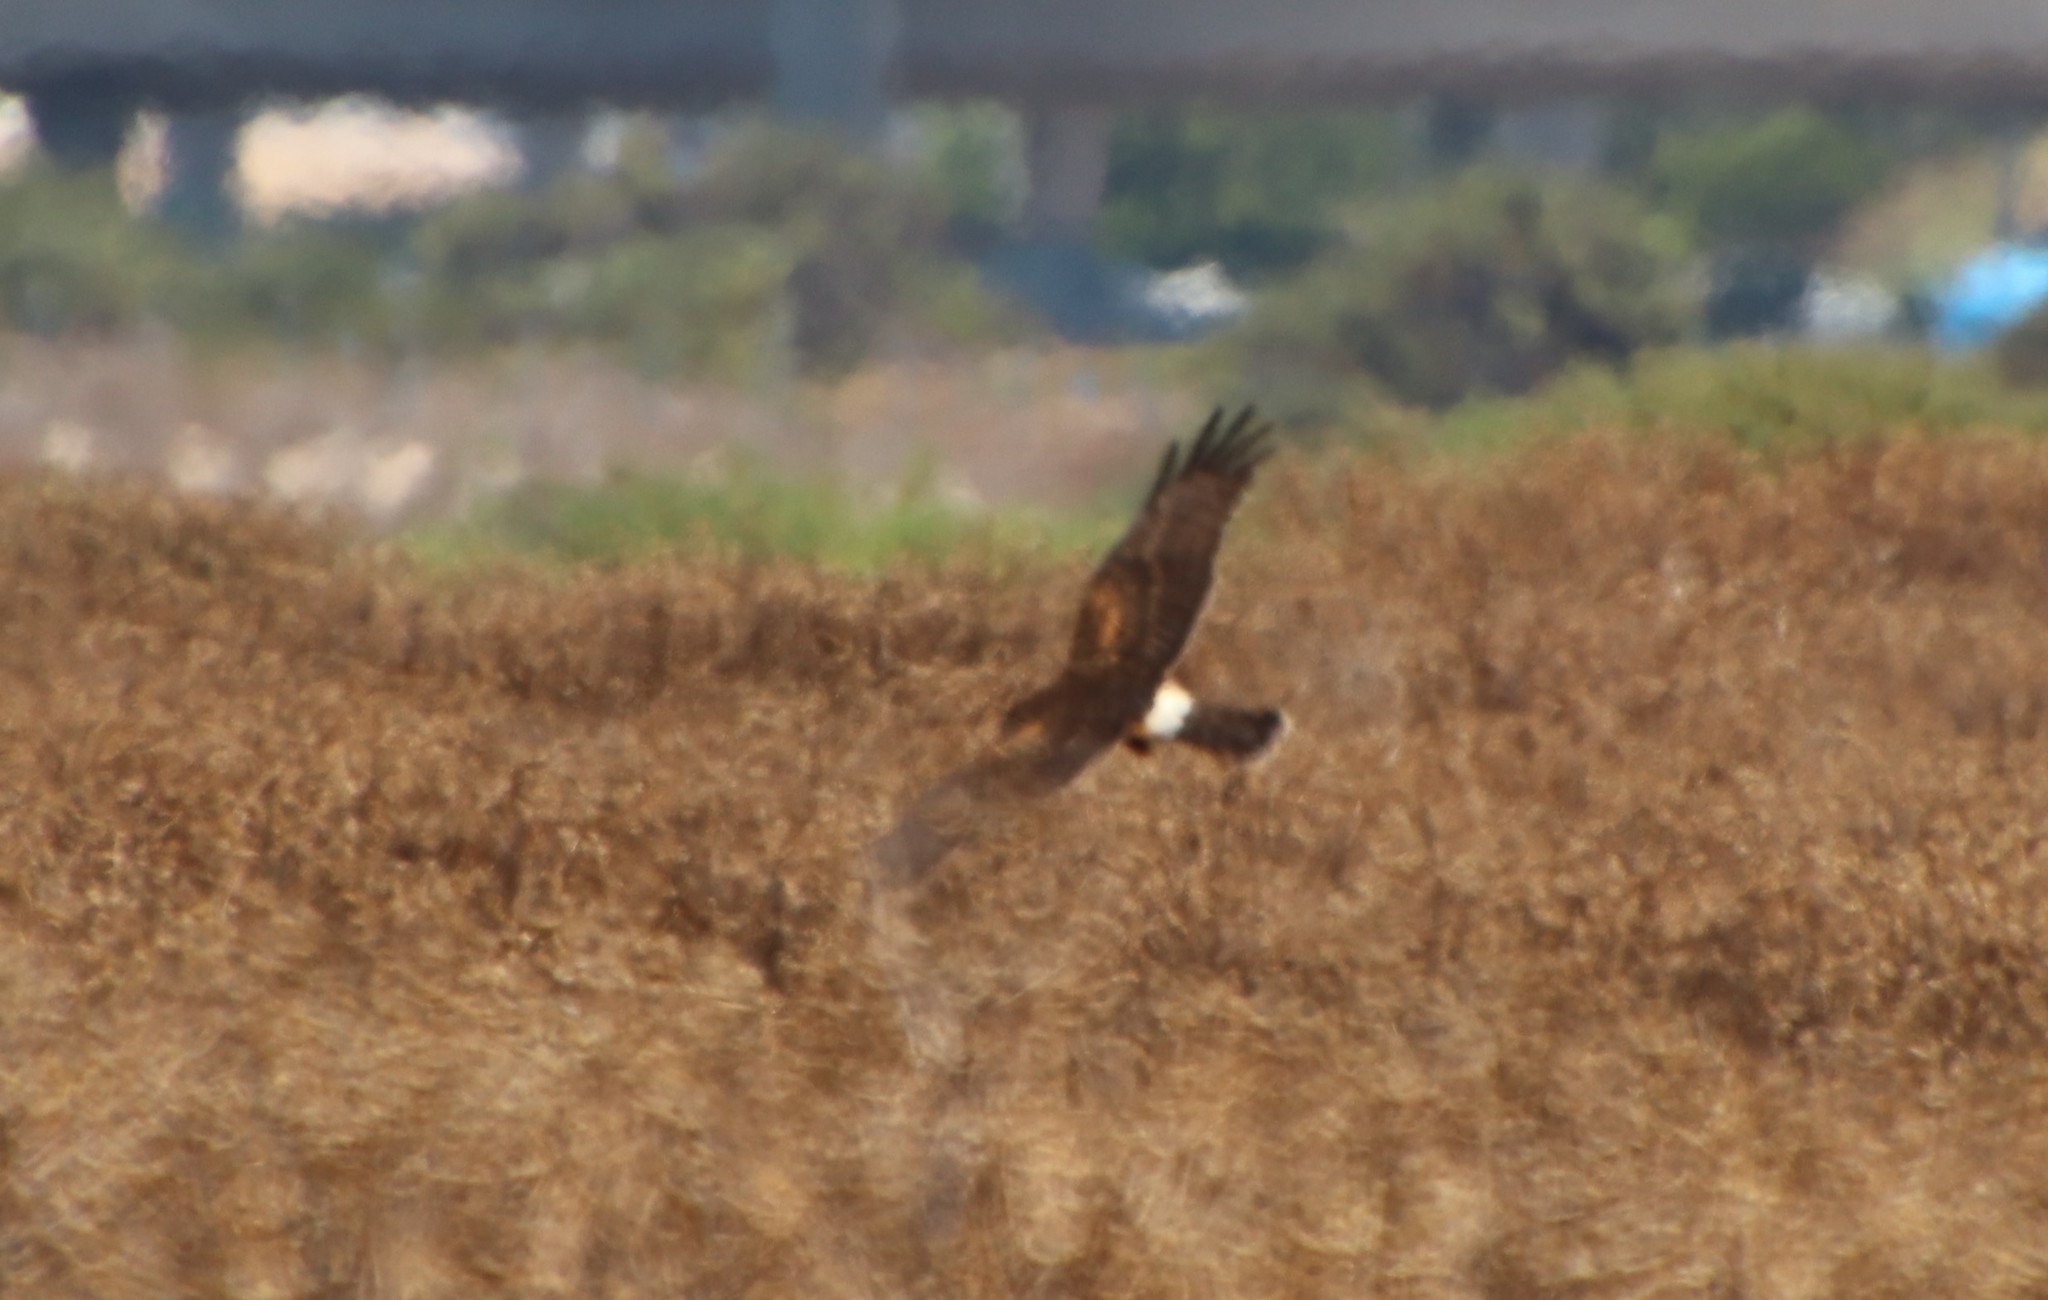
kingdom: Animalia
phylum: Chordata
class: Aves
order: Accipitriformes
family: Accipitridae
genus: Circus
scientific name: Circus cyaneus
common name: Hen harrier
